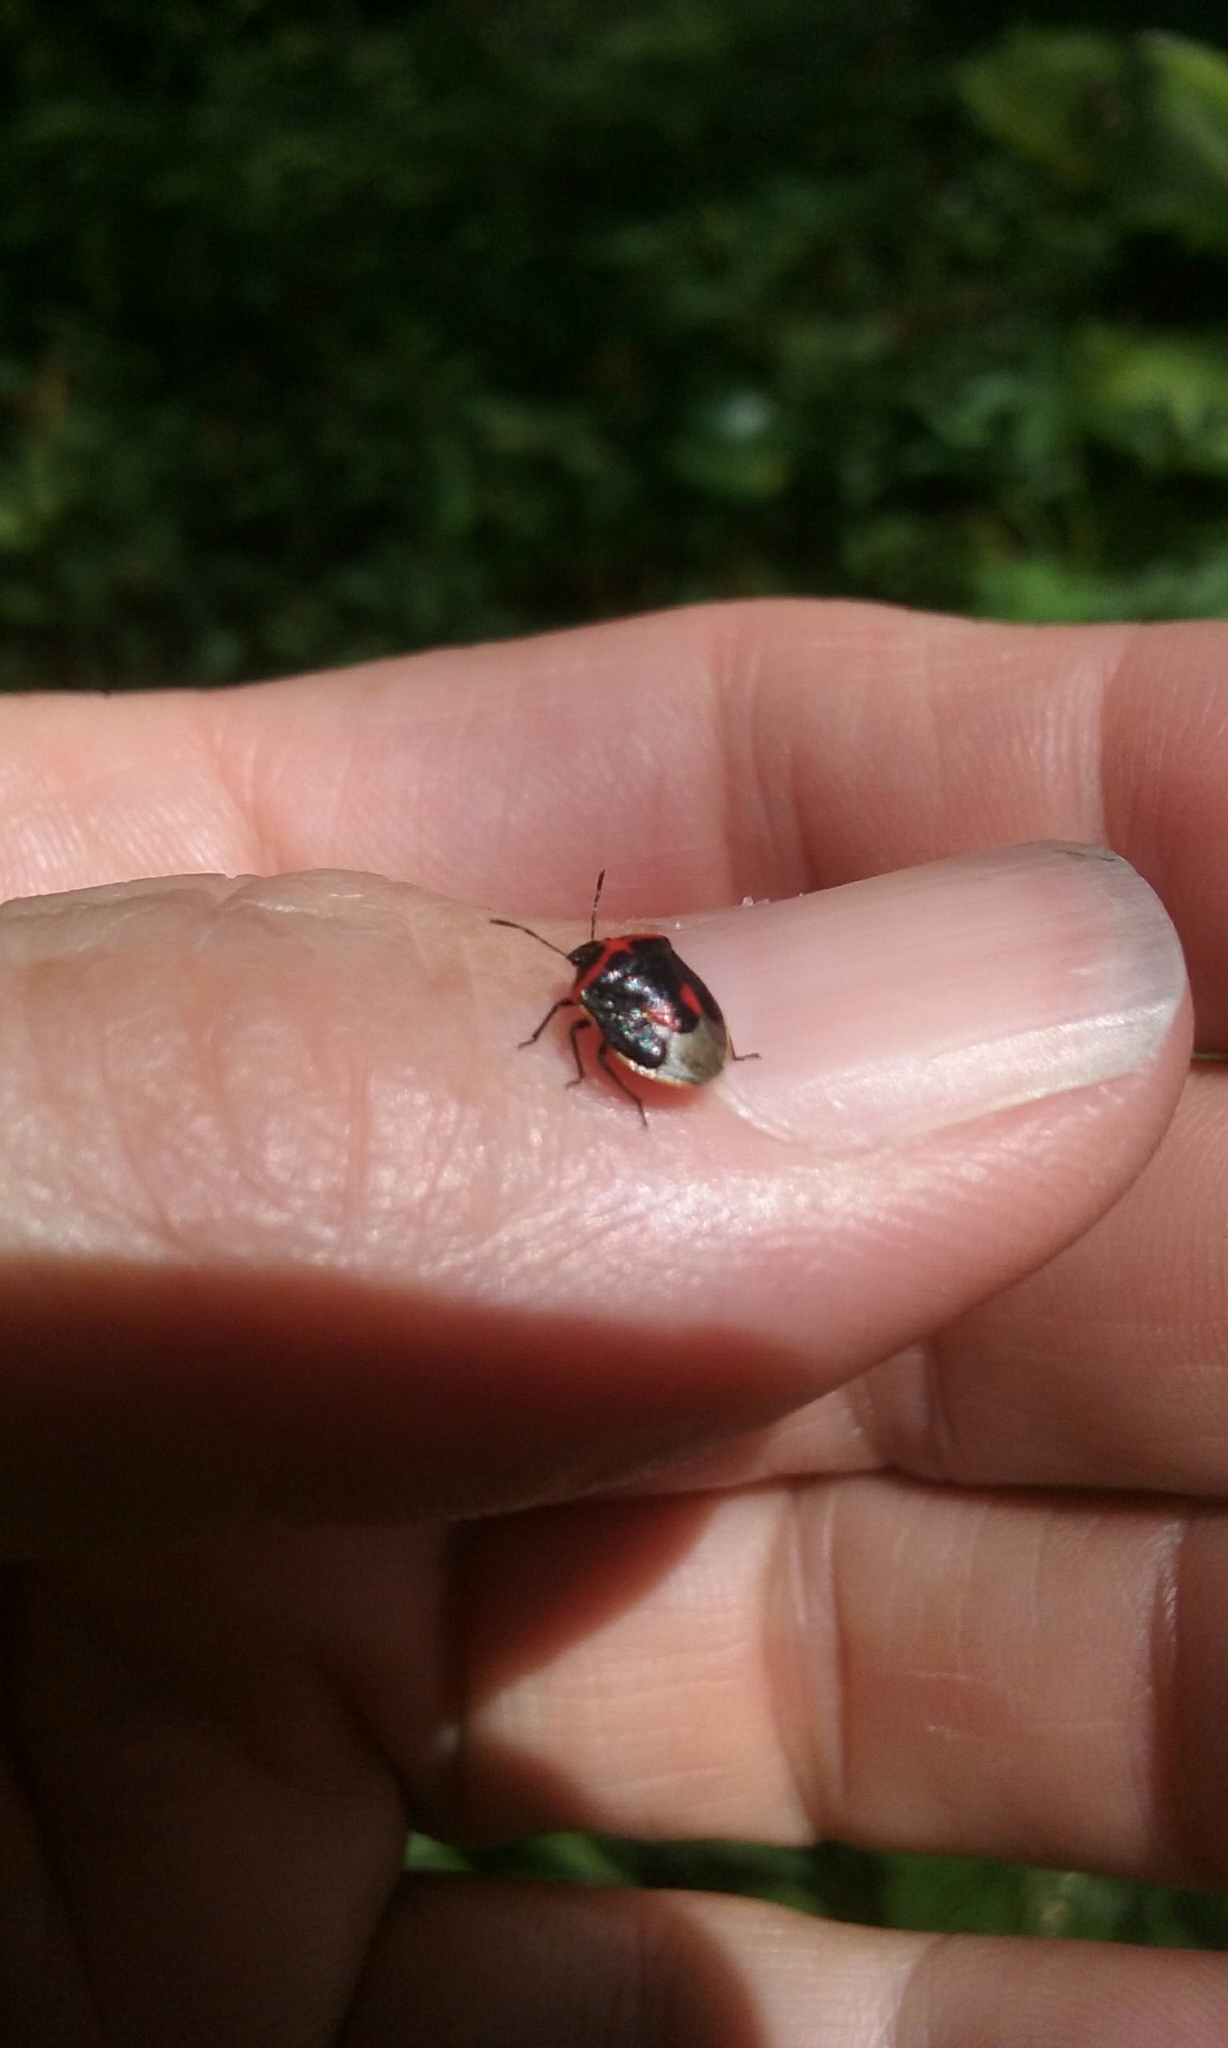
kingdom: Animalia
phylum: Arthropoda
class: Insecta
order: Hemiptera
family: Pentatomidae
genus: Cosmopepla
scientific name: Cosmopepla lintneriana
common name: Twice-stabbed stink bug
